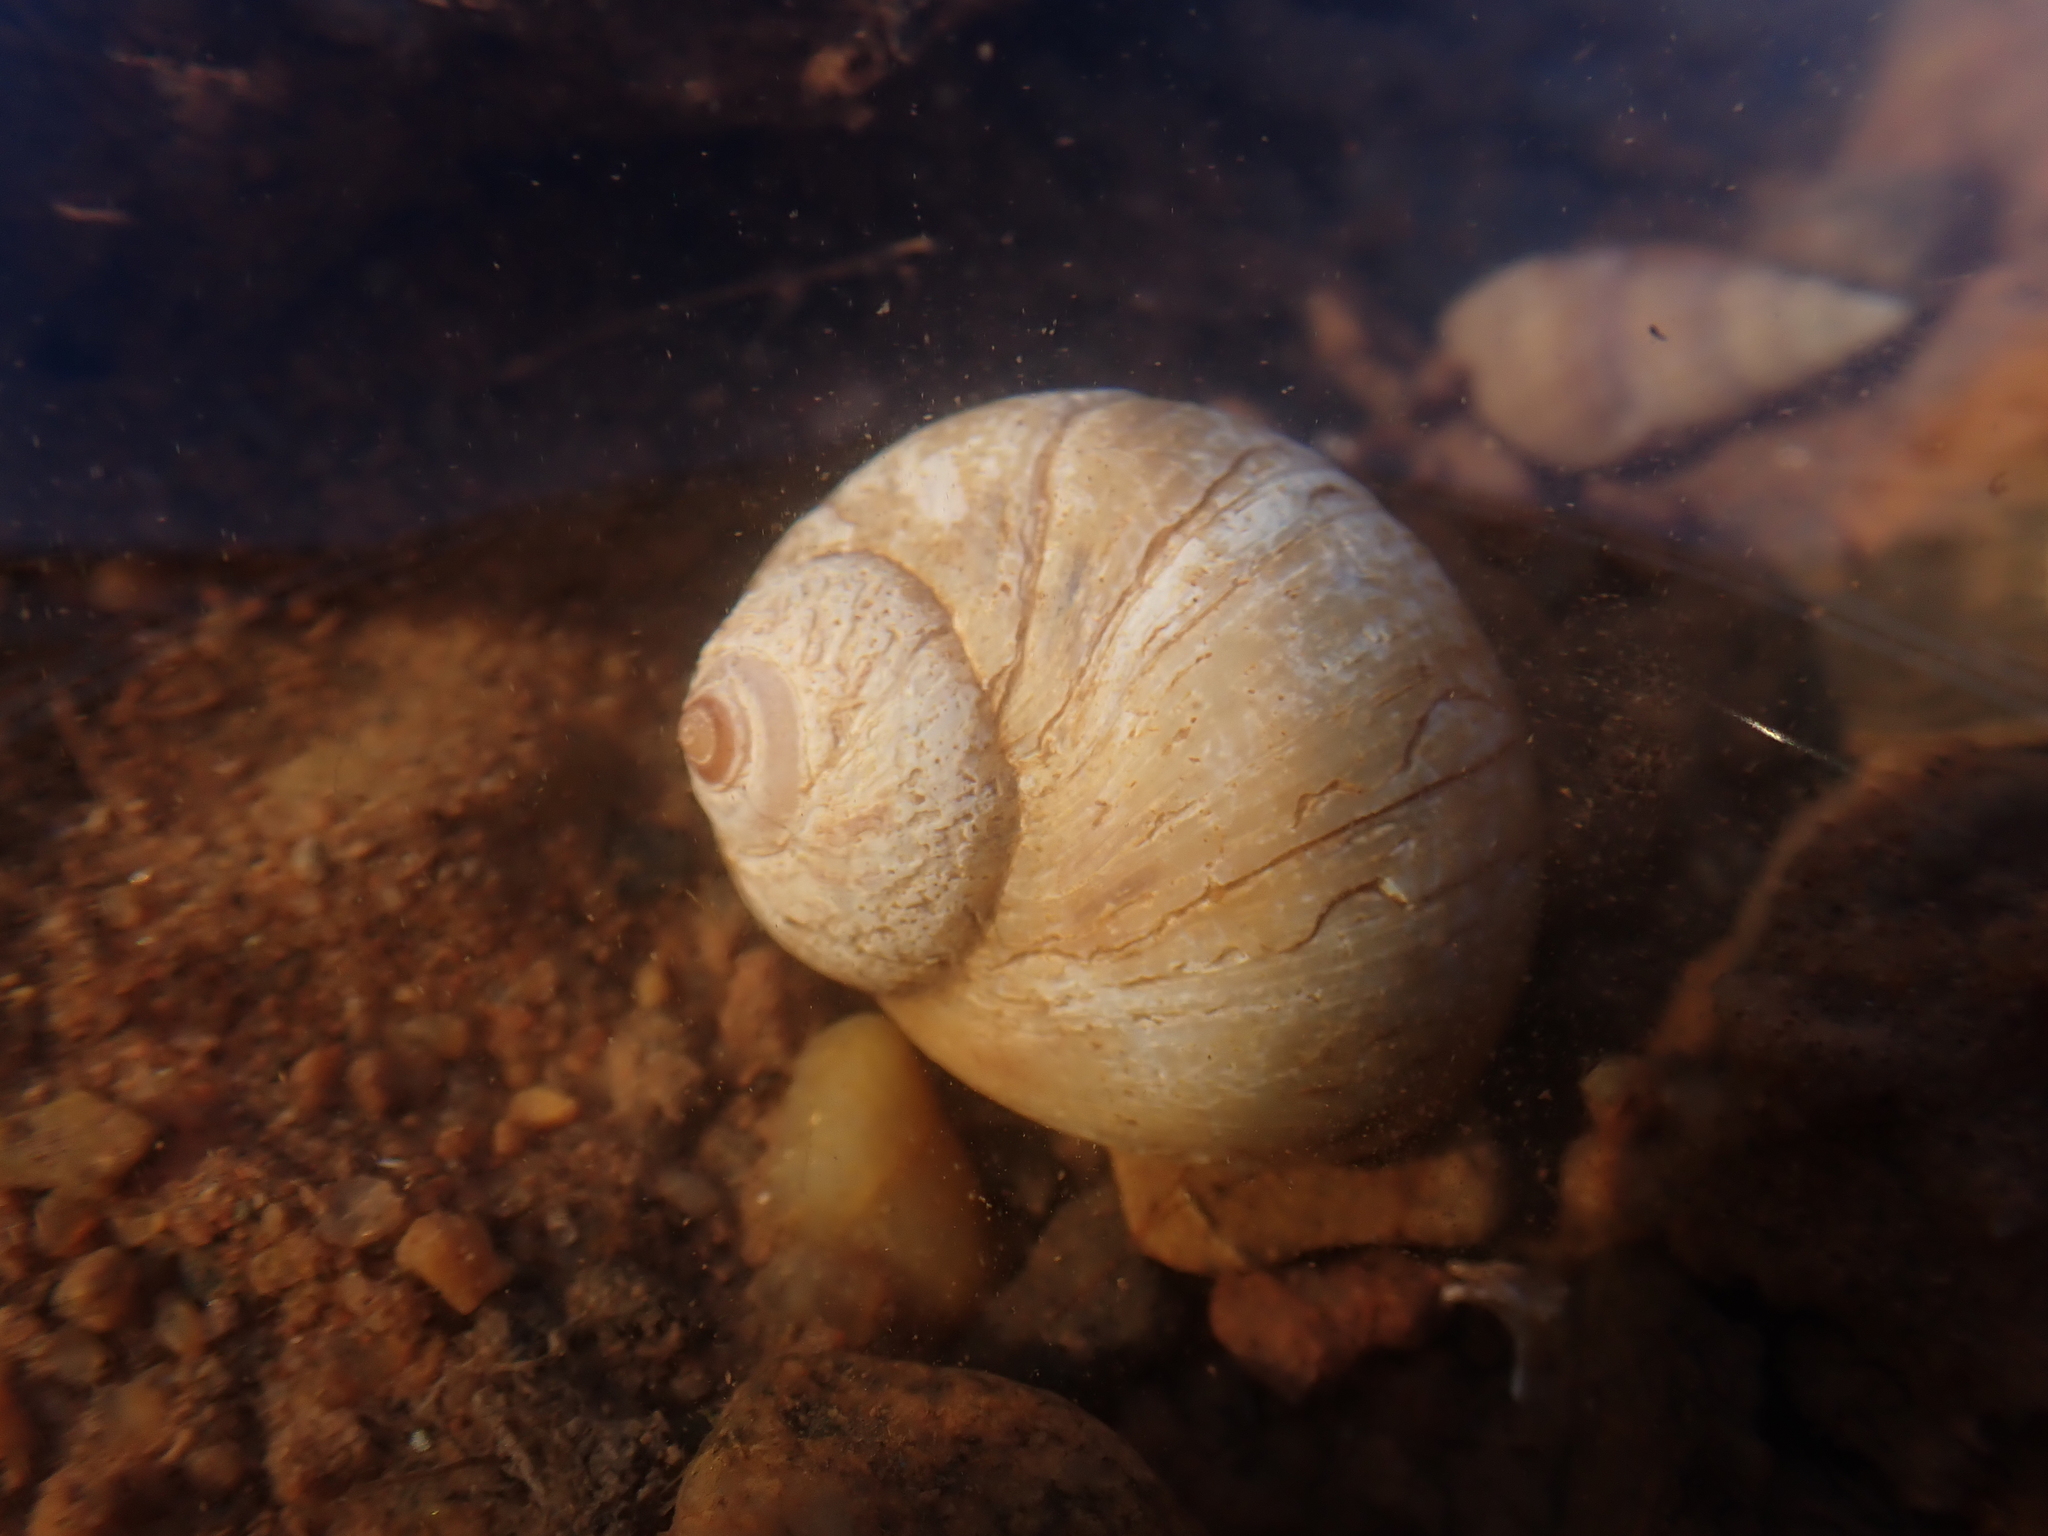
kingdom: Animalia
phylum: Mollusca
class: Gastropoda
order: Littorinimorpha
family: Naticidae
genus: Euspira
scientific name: Euspira heros
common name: Common northern moonsnail
